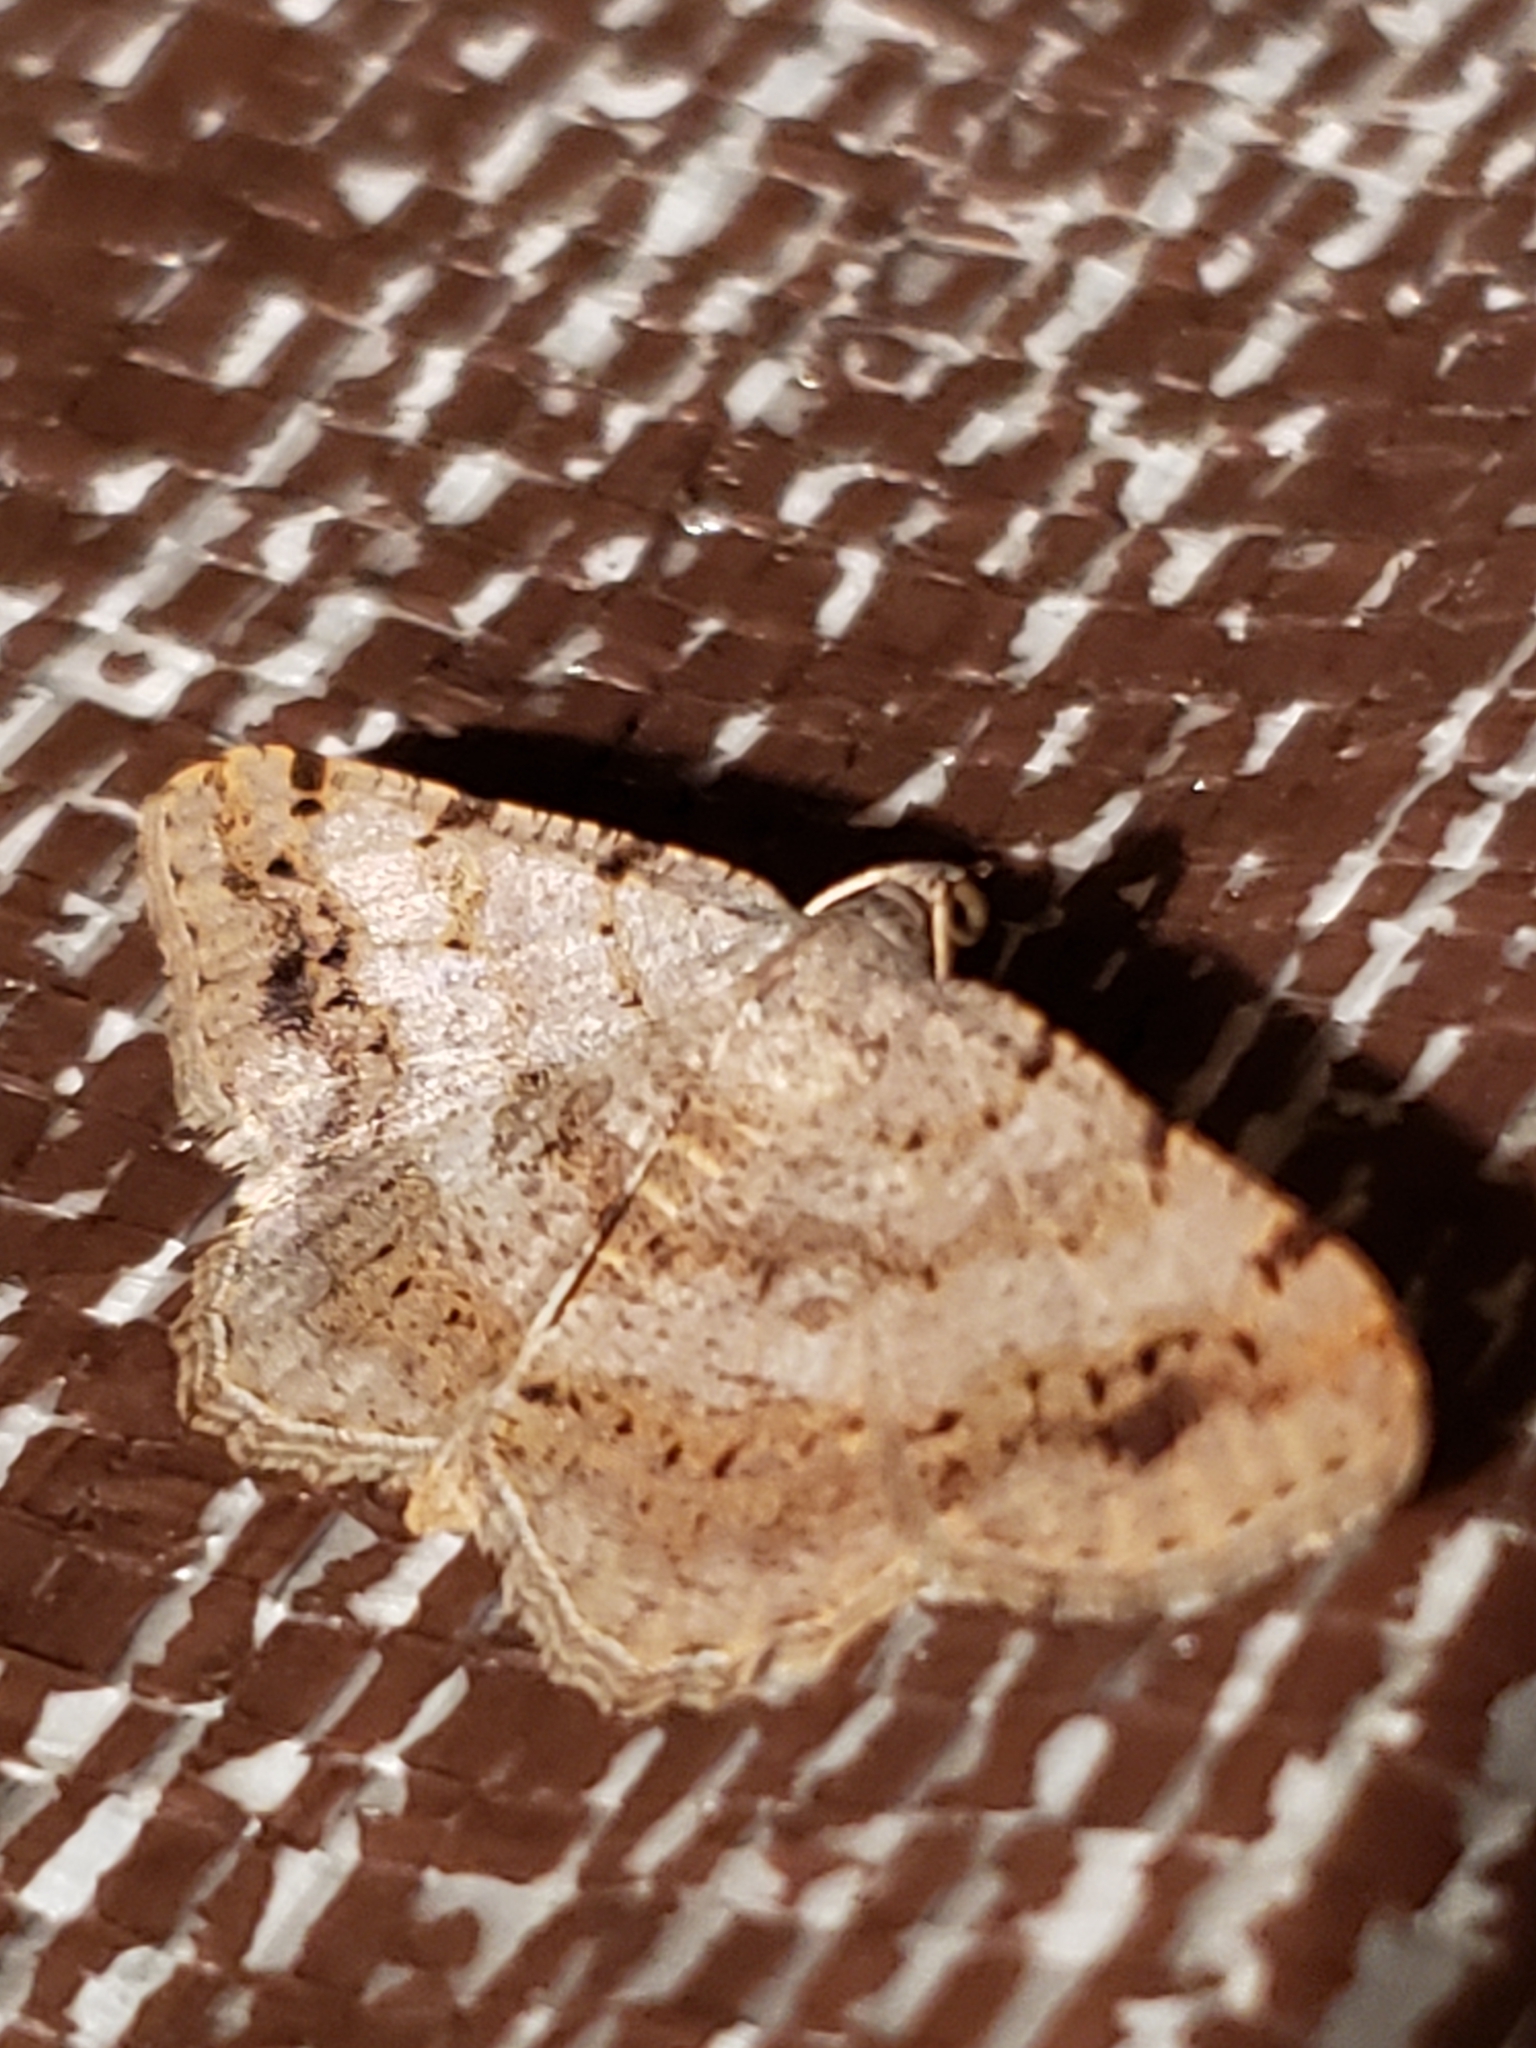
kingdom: Animalia
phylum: Arthropoda
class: Insecta
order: Lepidoptera
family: Geometridae
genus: Digrammia
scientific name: Digrammia ocellinata
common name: Faint-spotted angle
